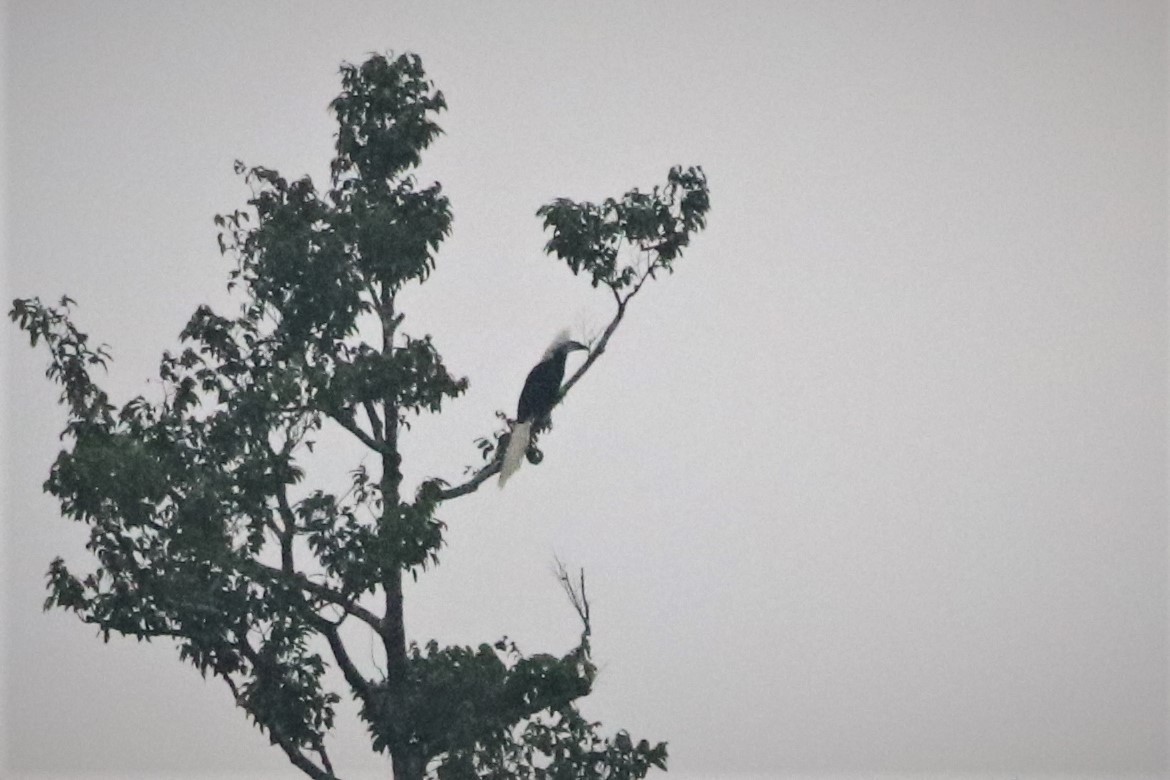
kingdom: Animalia
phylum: Chordata
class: Aves
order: Bucerotiformes
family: Bucerotidae
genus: Berenicornis
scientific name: Berenicornis comatus
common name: White-crowned hornbill
